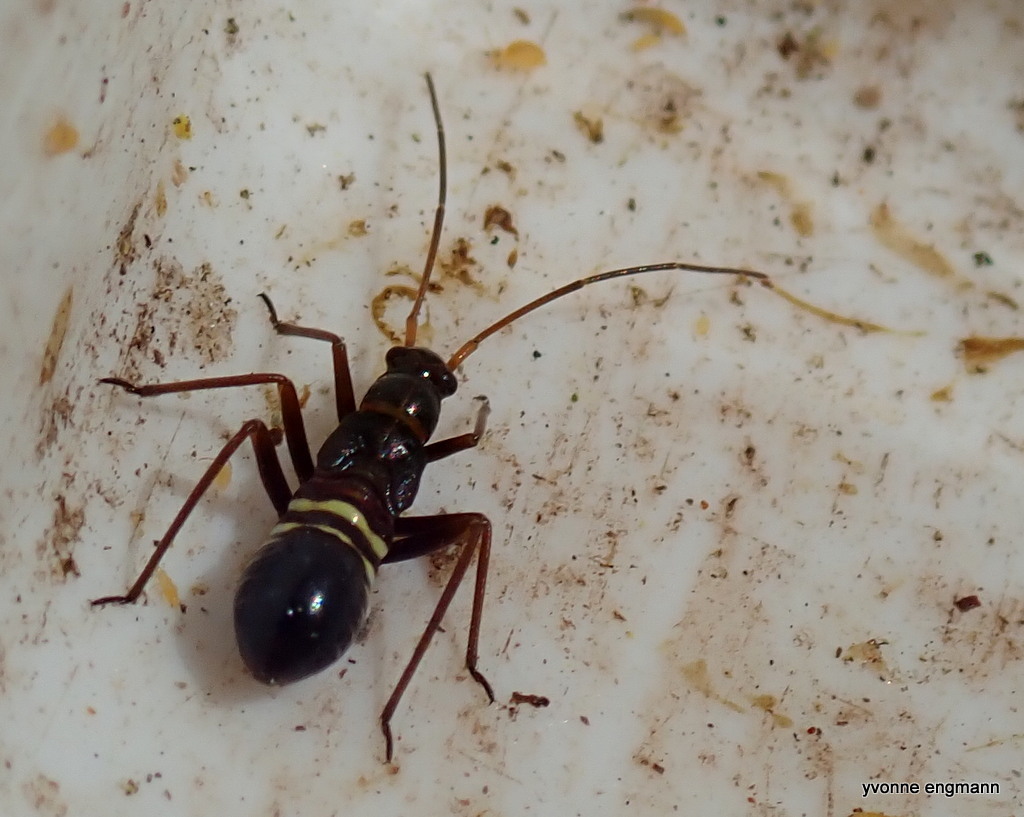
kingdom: Animalia
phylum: Arthropoda
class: Insecta
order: Hemiptera
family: Miridae
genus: Miris
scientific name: Miris striatus
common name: Fine streaked bugkin
